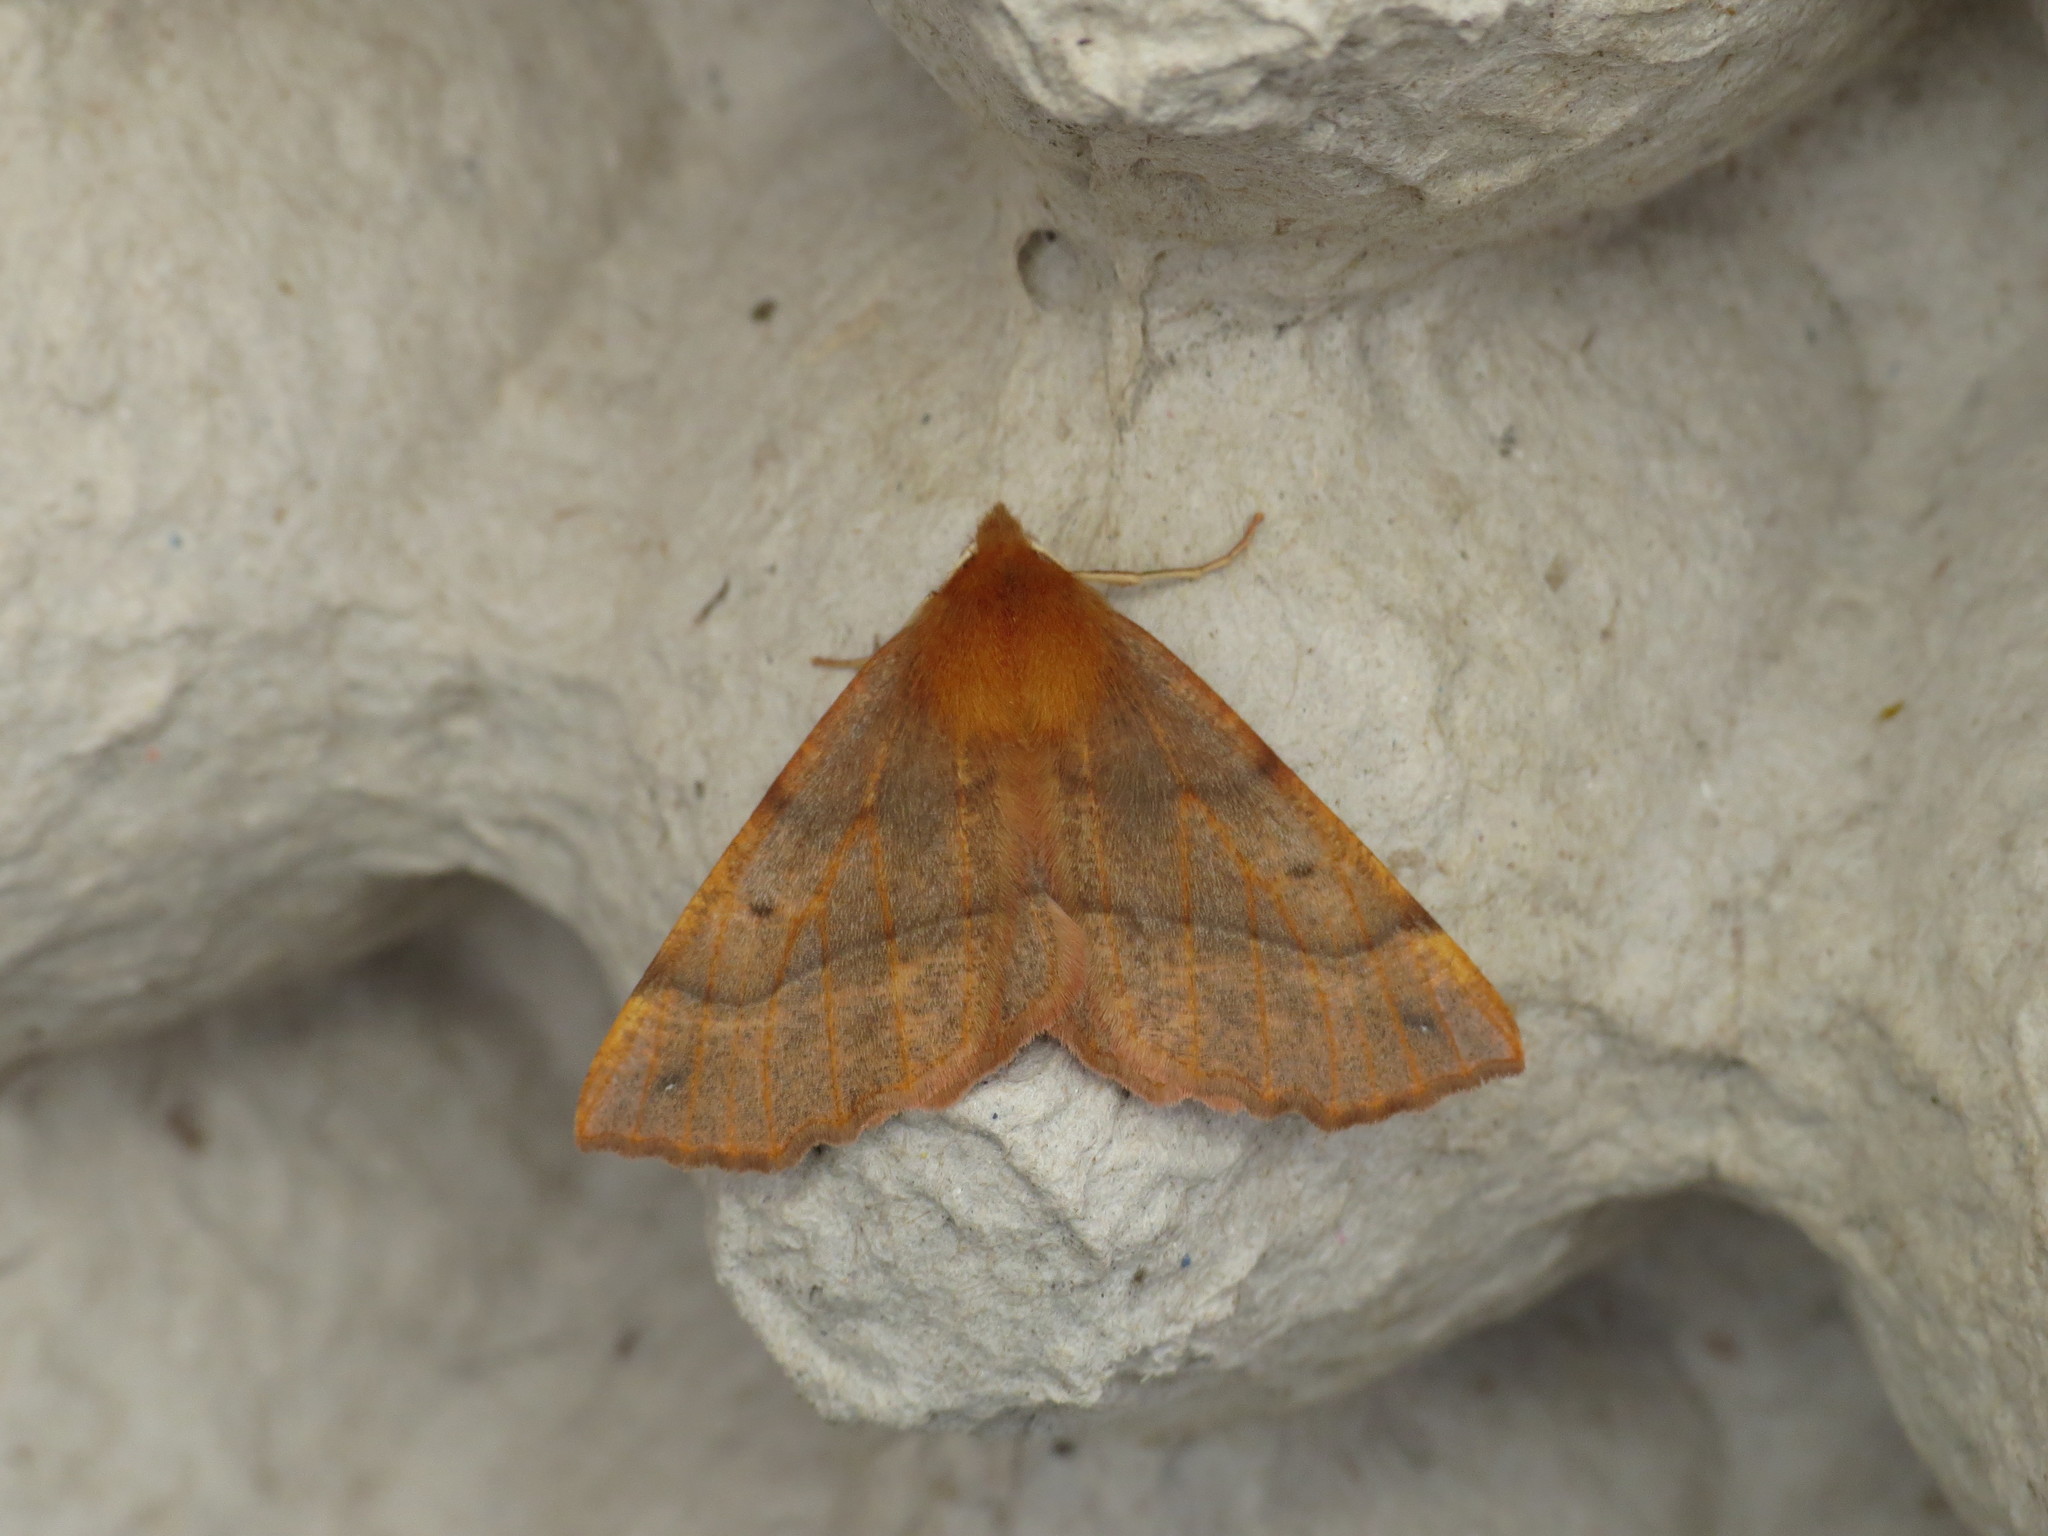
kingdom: Animalia
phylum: Arthropoda
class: Insecta
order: Lepidoptera
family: Geometridae
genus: Colotois
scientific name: Colotois pennaria
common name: Feathered thorn
